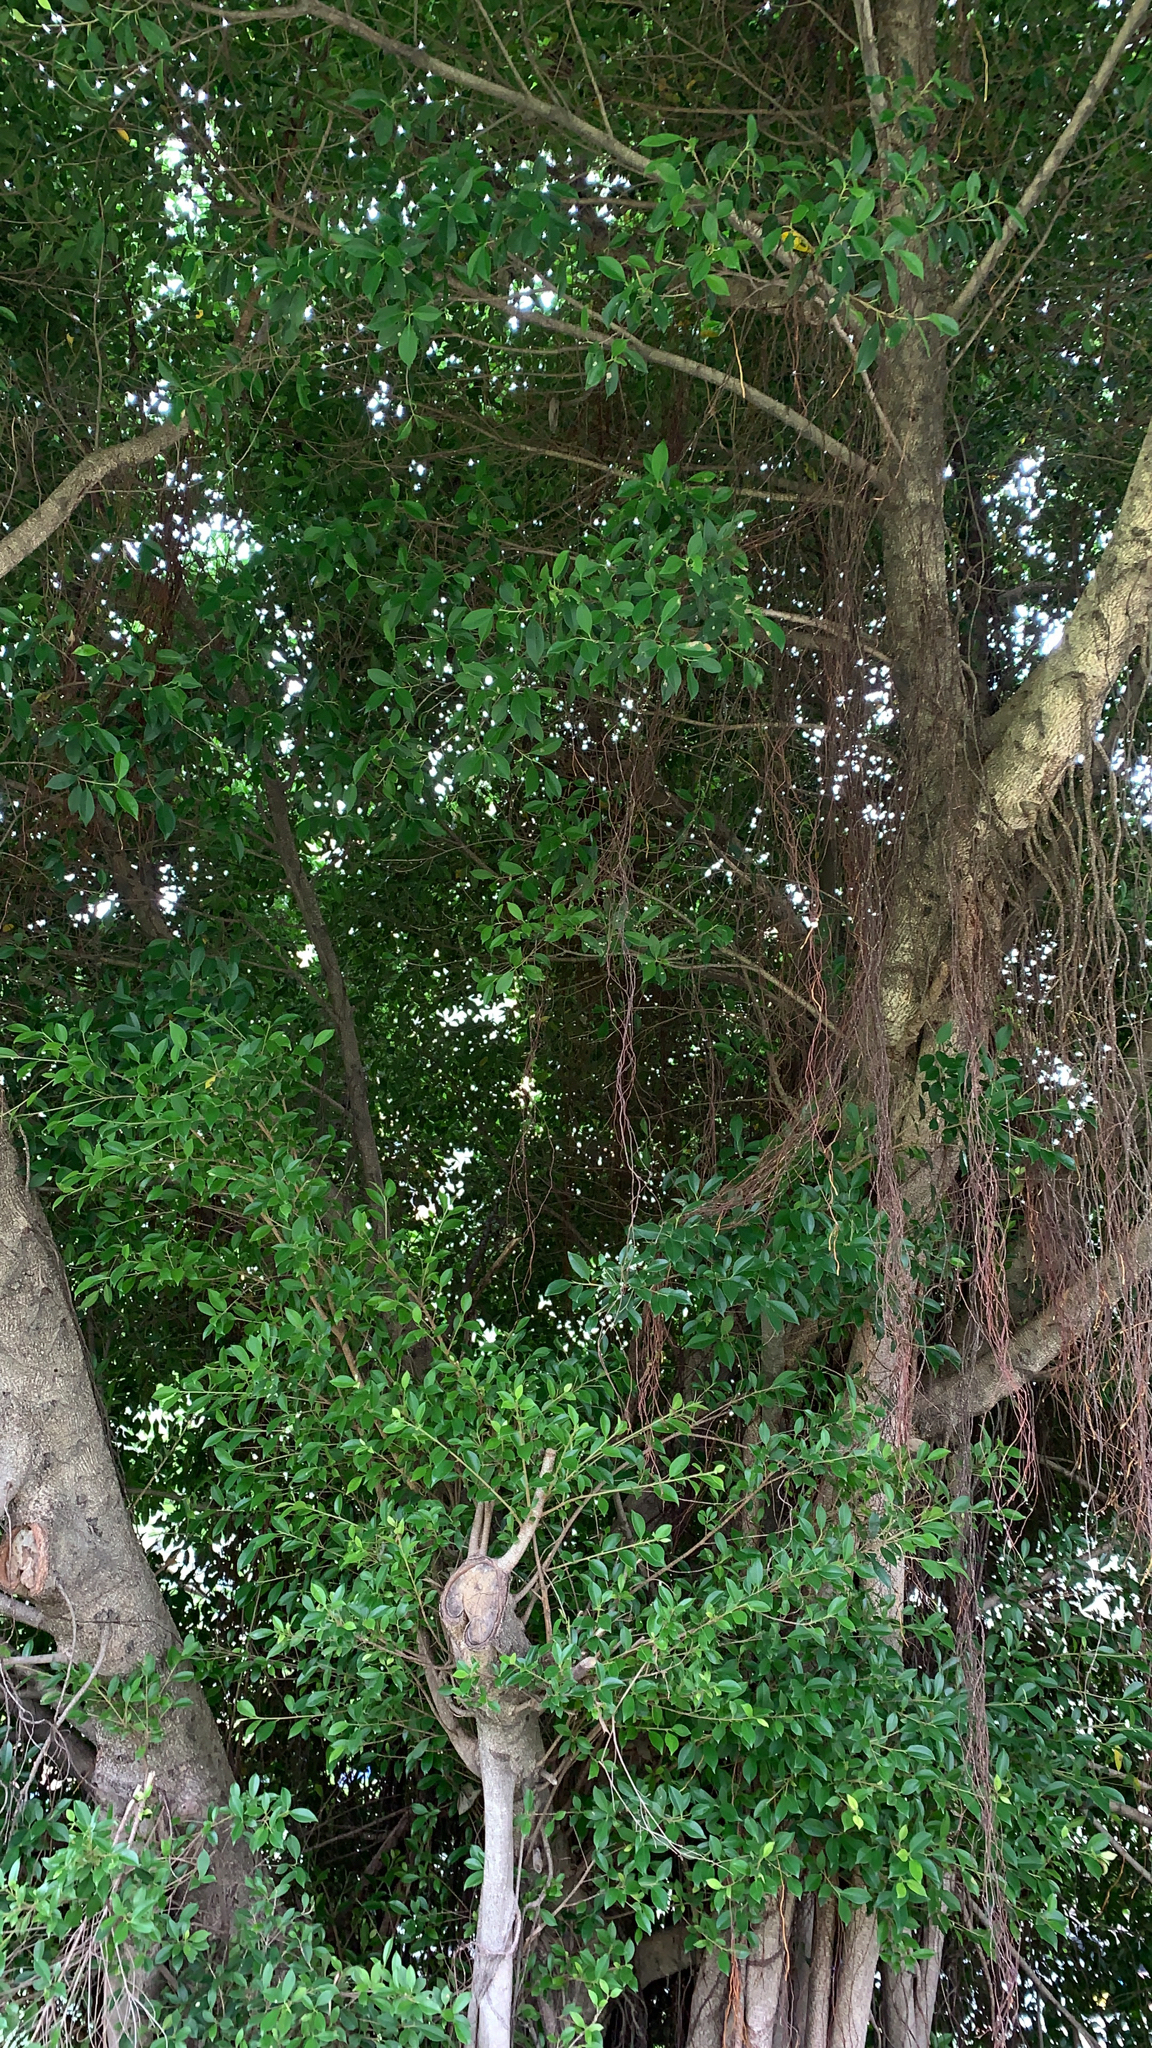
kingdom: Plantae
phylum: Tracheophyta
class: Magnoliopsida
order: Rosales
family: Moraceae
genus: Ficus
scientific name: Ficus microcarpa
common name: Chinese banyan
